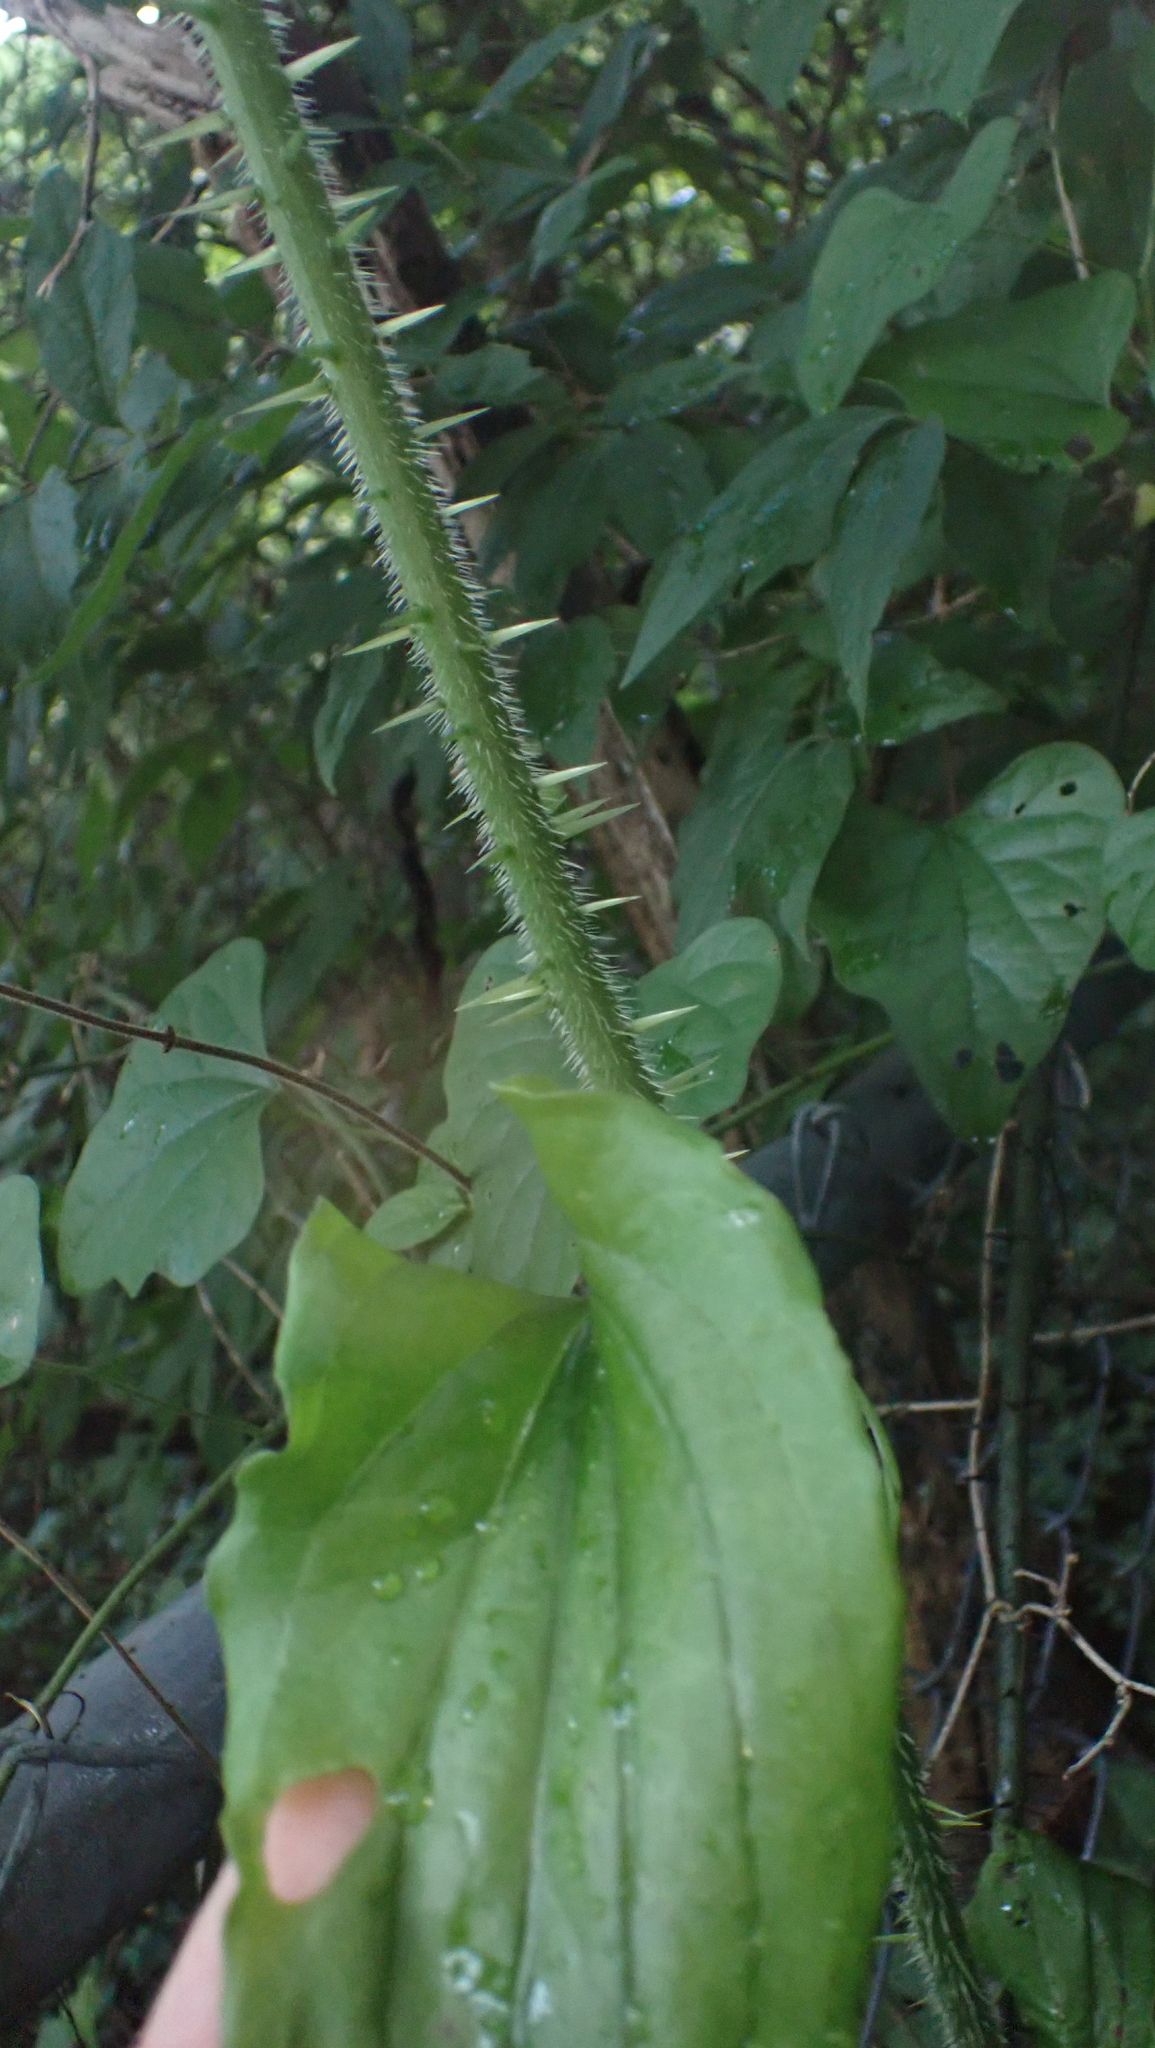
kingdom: Plantae
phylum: Tracheophyta
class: Liliopsida
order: Liliales
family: Smilacaceae
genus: Smilax
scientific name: Smilax tamnoides
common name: Hellfetter
